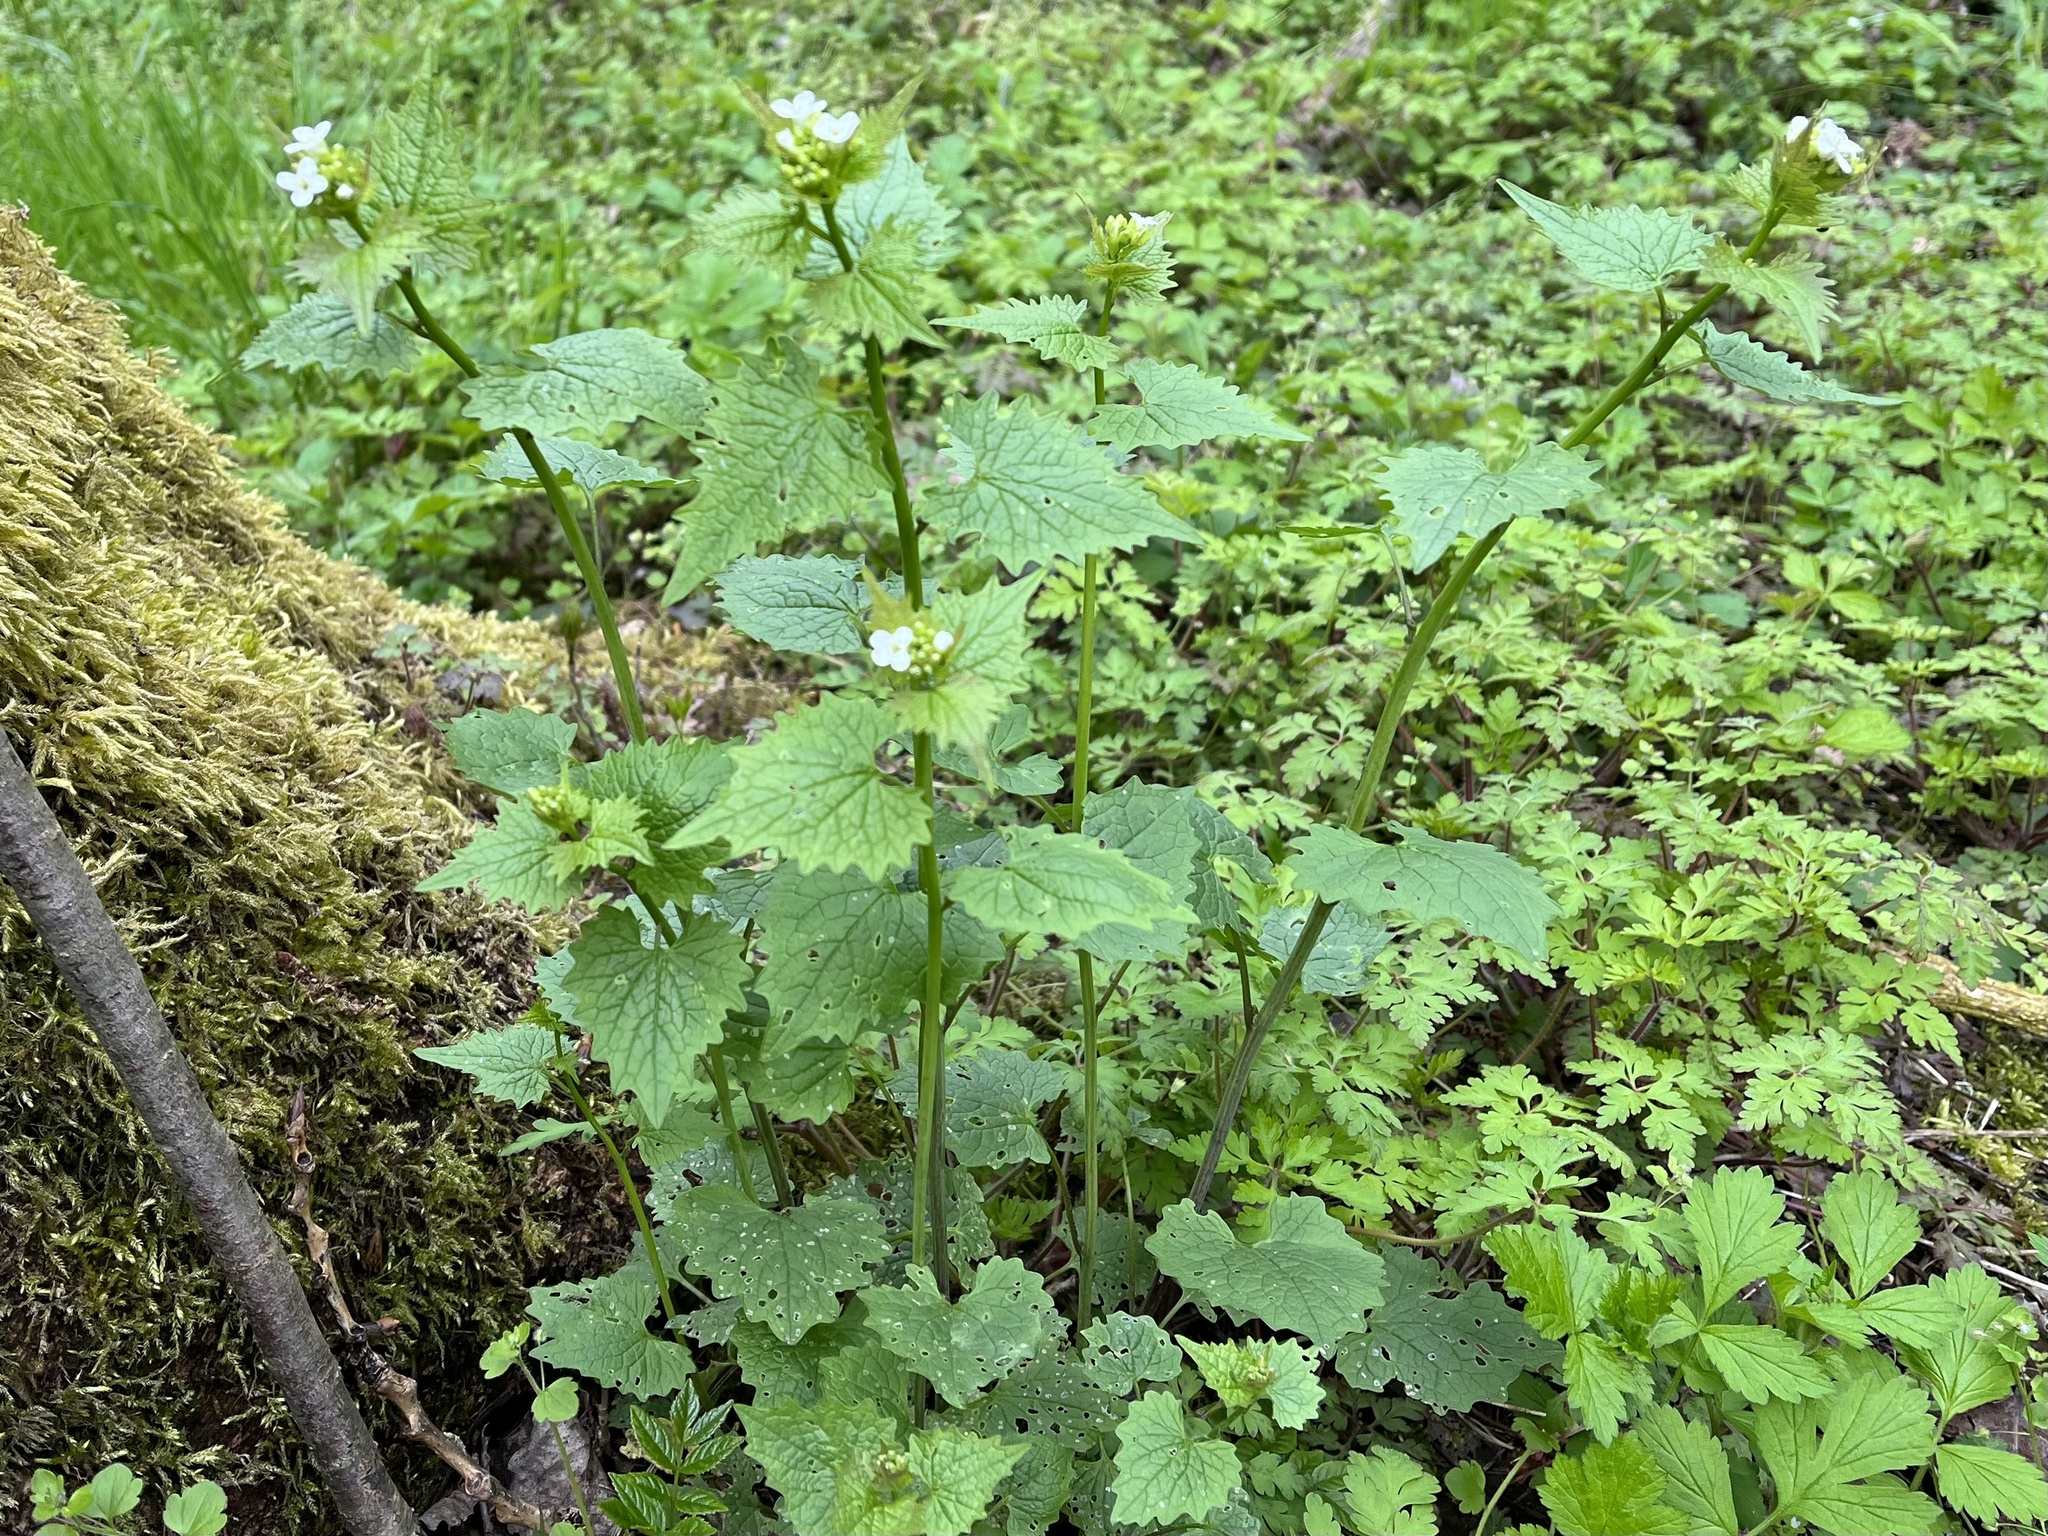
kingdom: Plantae
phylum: Tracheophyta
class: Magnoliopsida
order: Brassicales
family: Brassicaceae
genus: Alliaria
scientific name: Alliaria petiolata
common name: Garlic mustard
